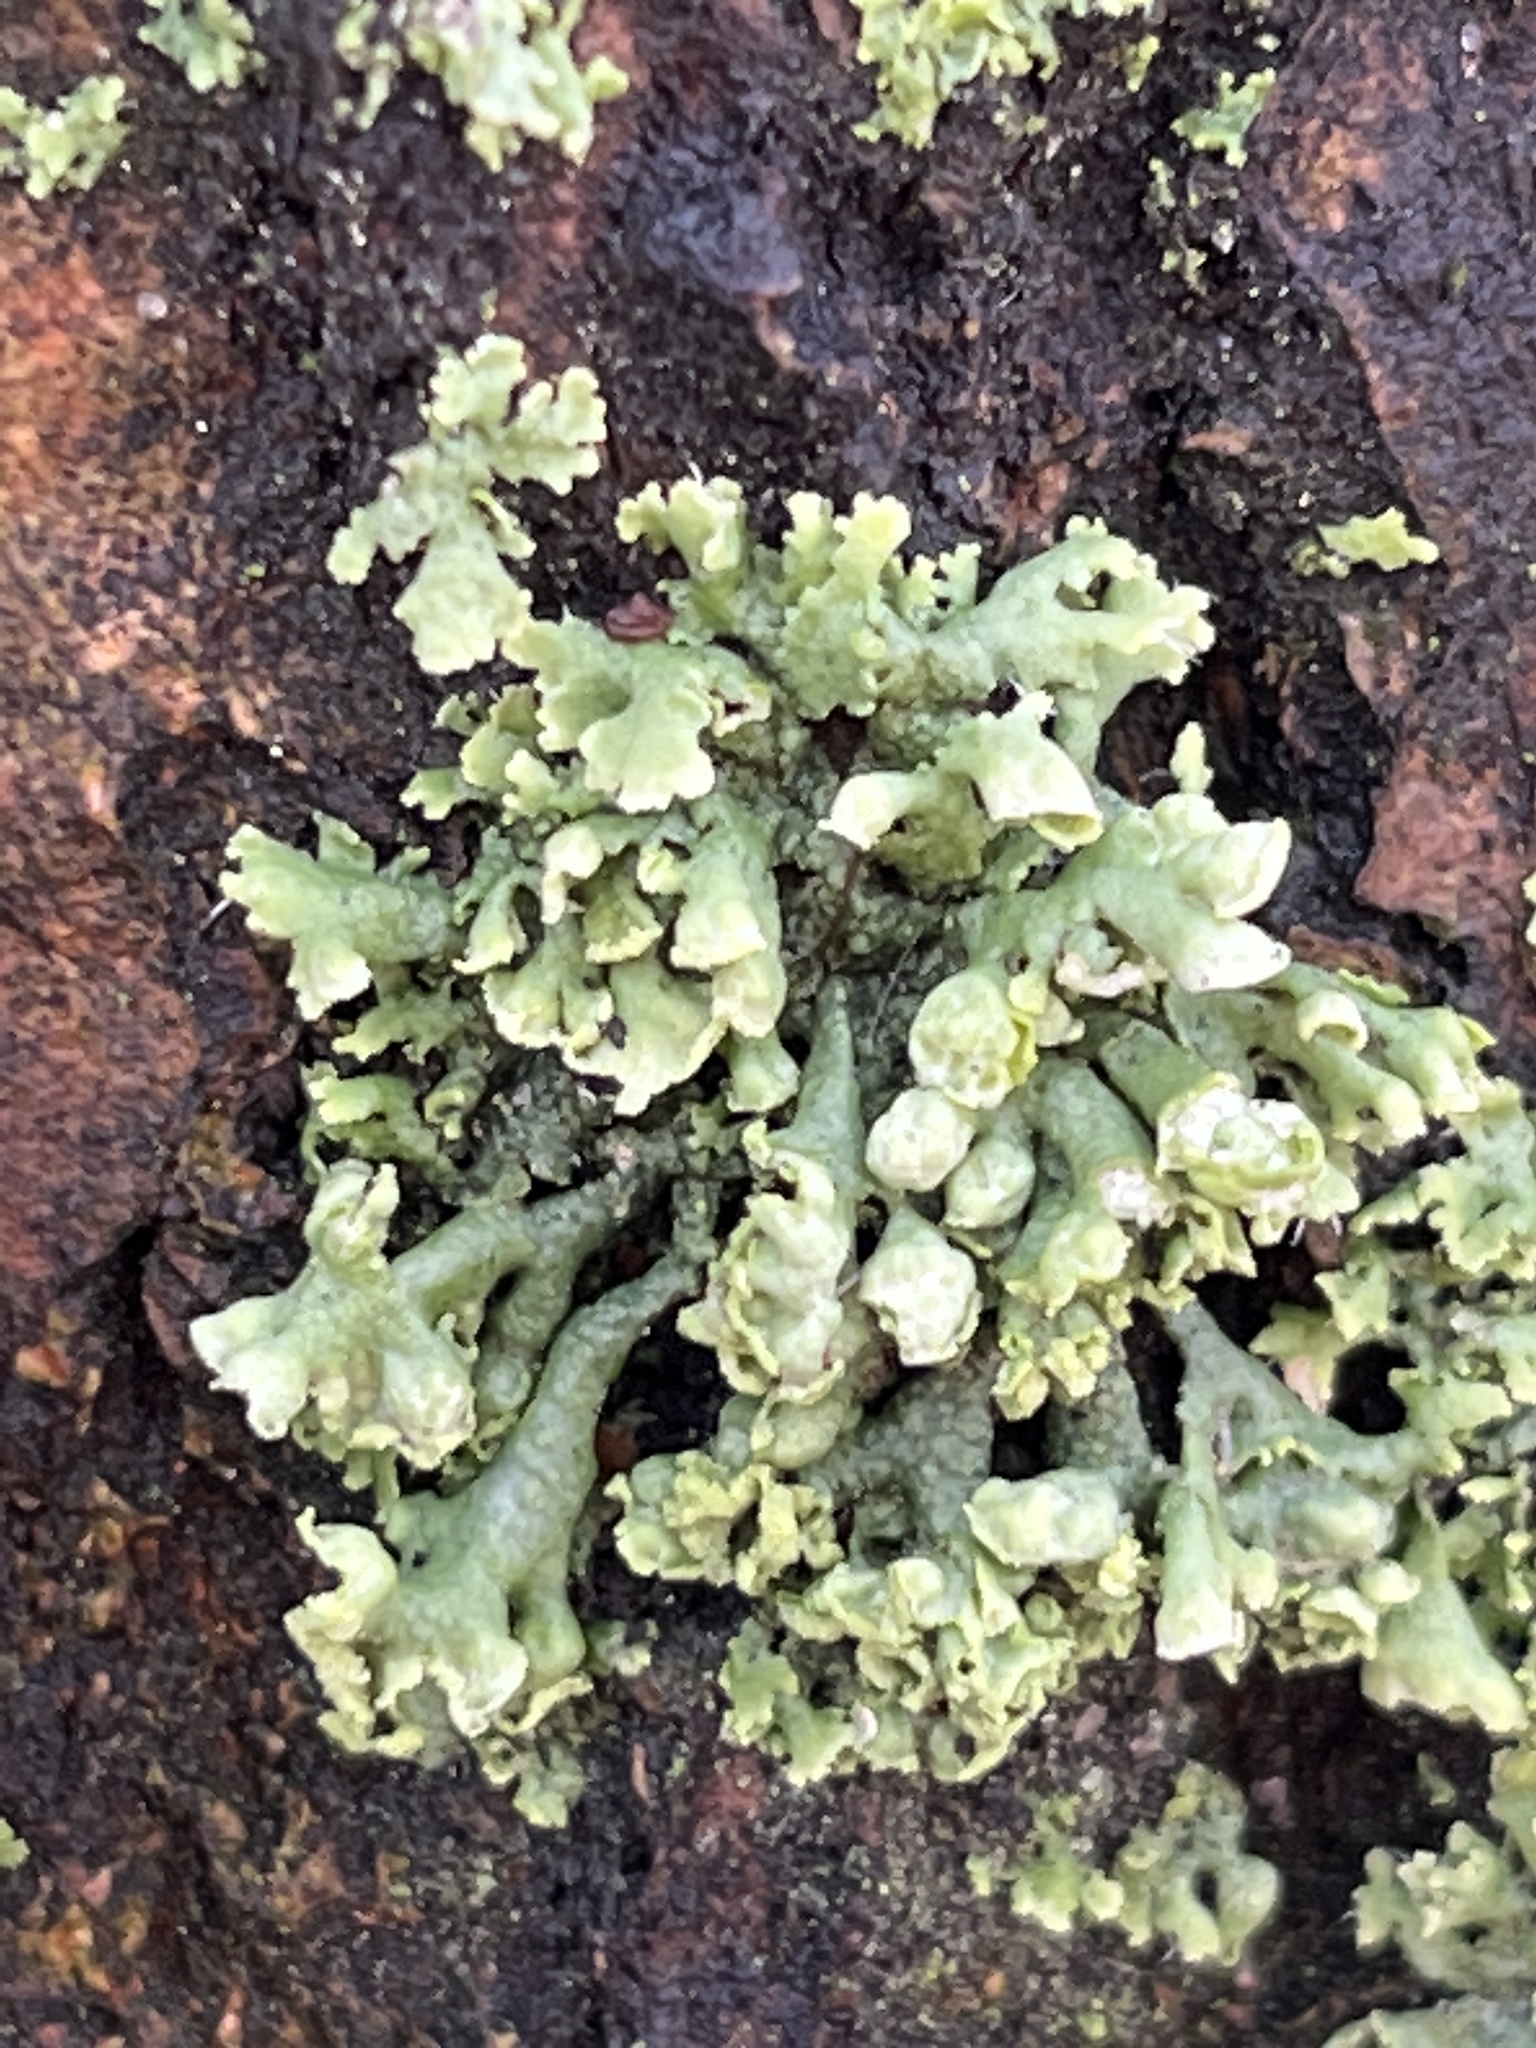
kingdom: Fungi
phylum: Ascomycota
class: Lecanoromycetes
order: Caliciales
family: Physciaceae
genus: Physcia
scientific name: Physcia adscendens
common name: Hooded rosette lichen
